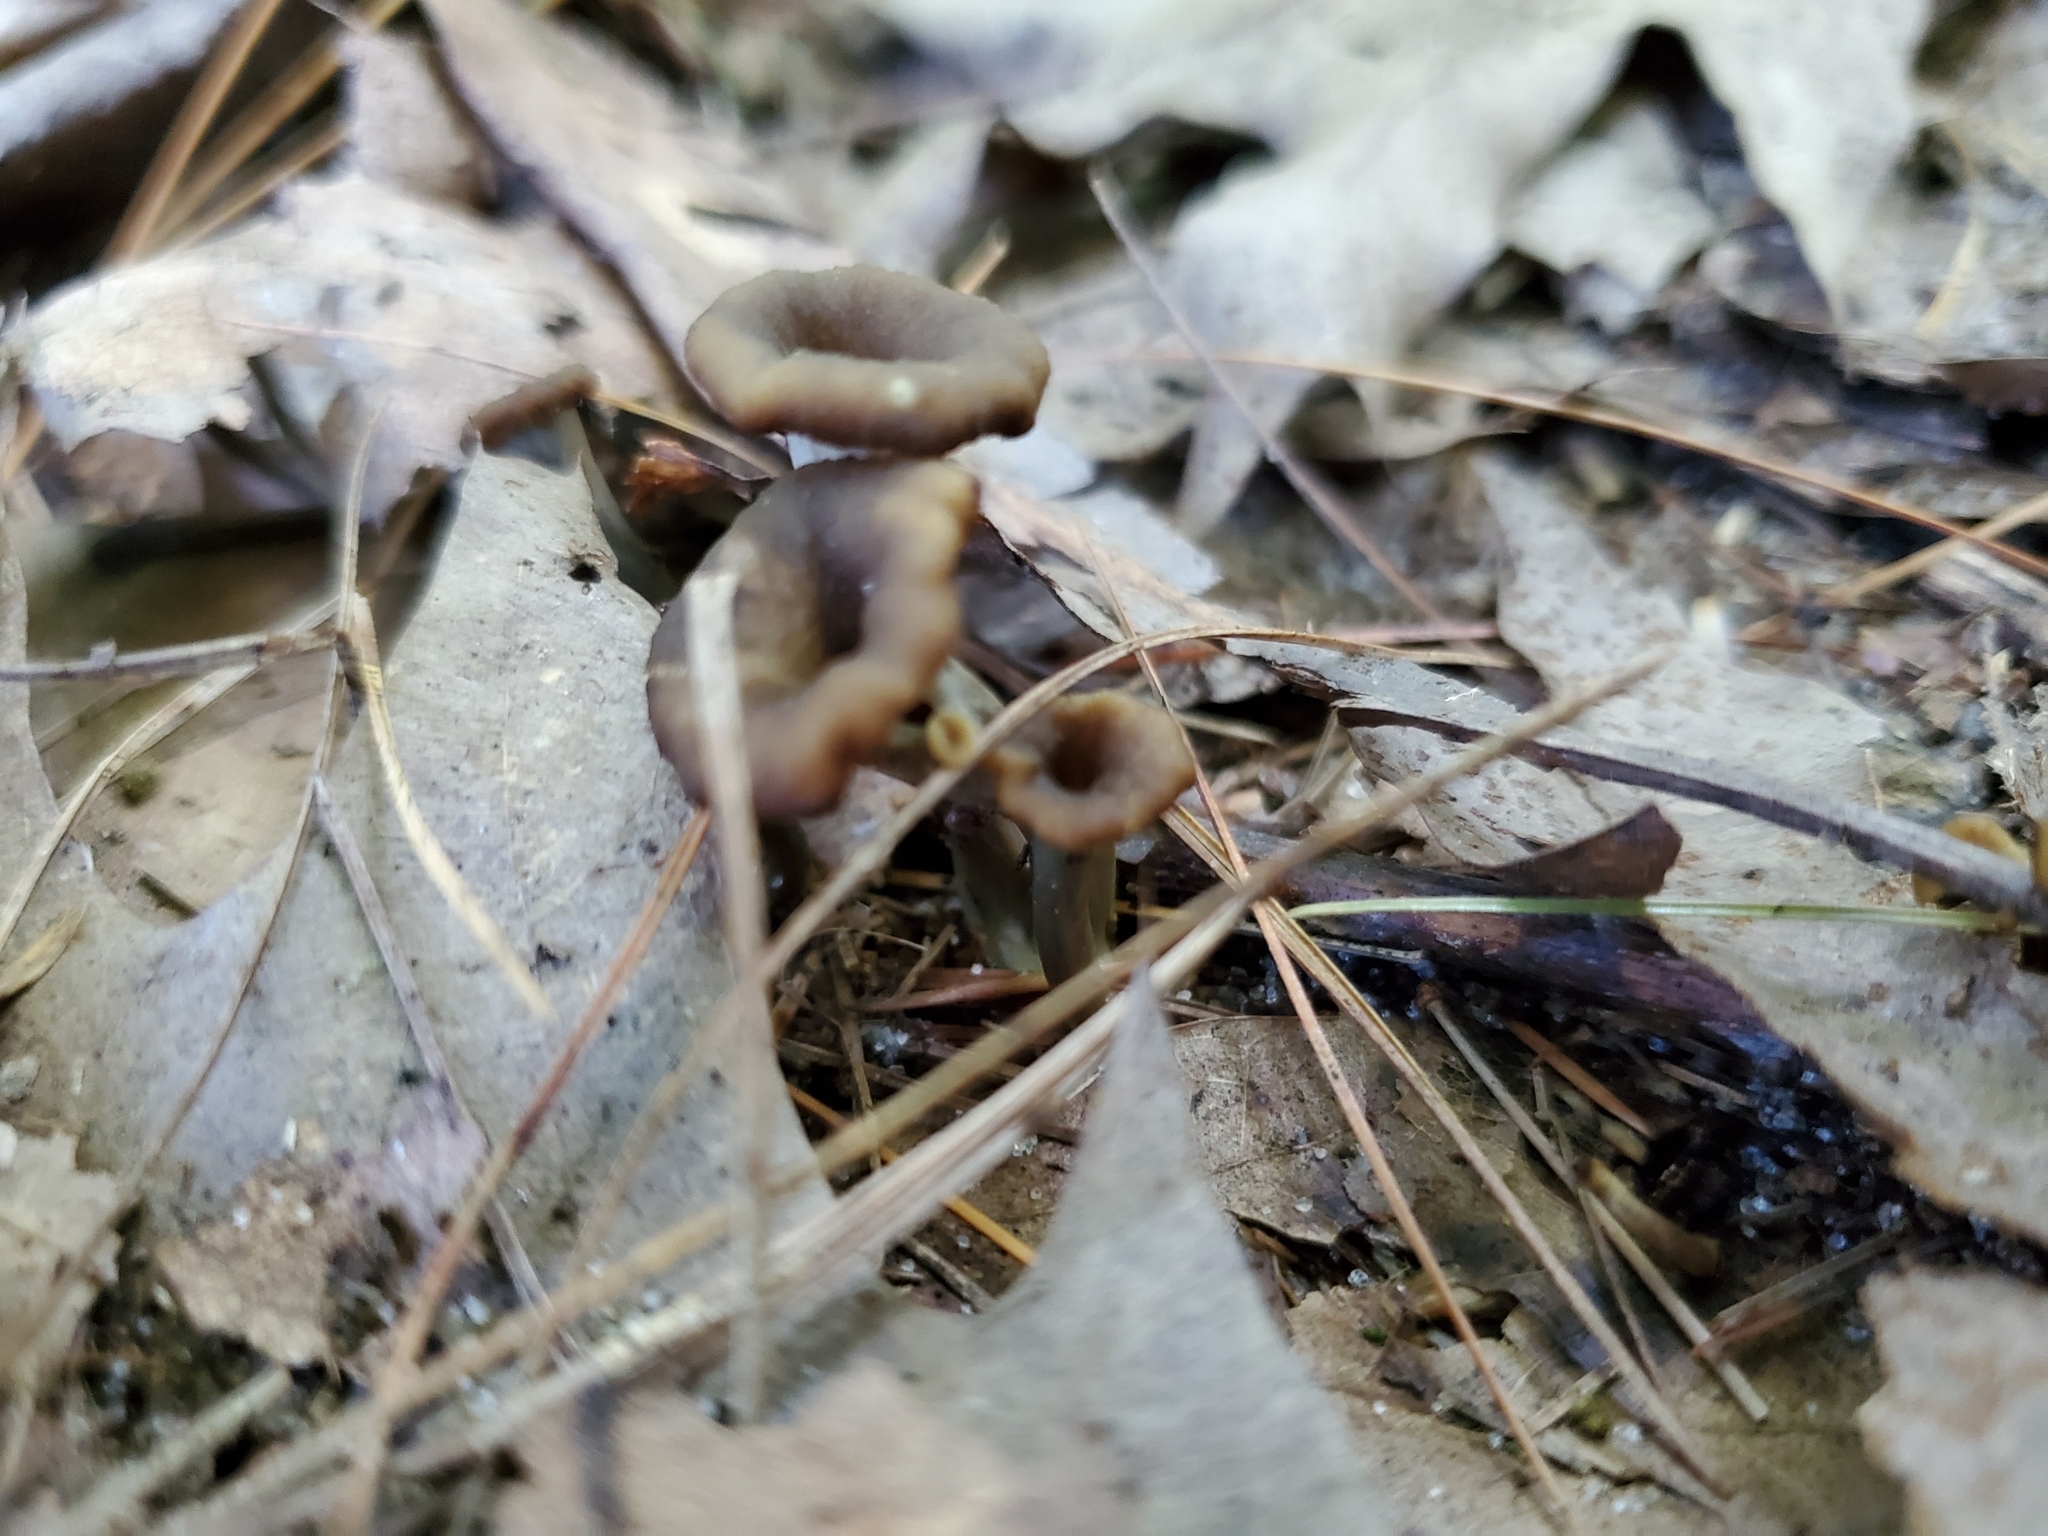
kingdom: Fungi
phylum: Basidiomycota
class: Agaricomycetes
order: Cantharellales
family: Hydnaceae
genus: Craterellus
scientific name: Craterellus cornucopioides
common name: Horn of plenty
